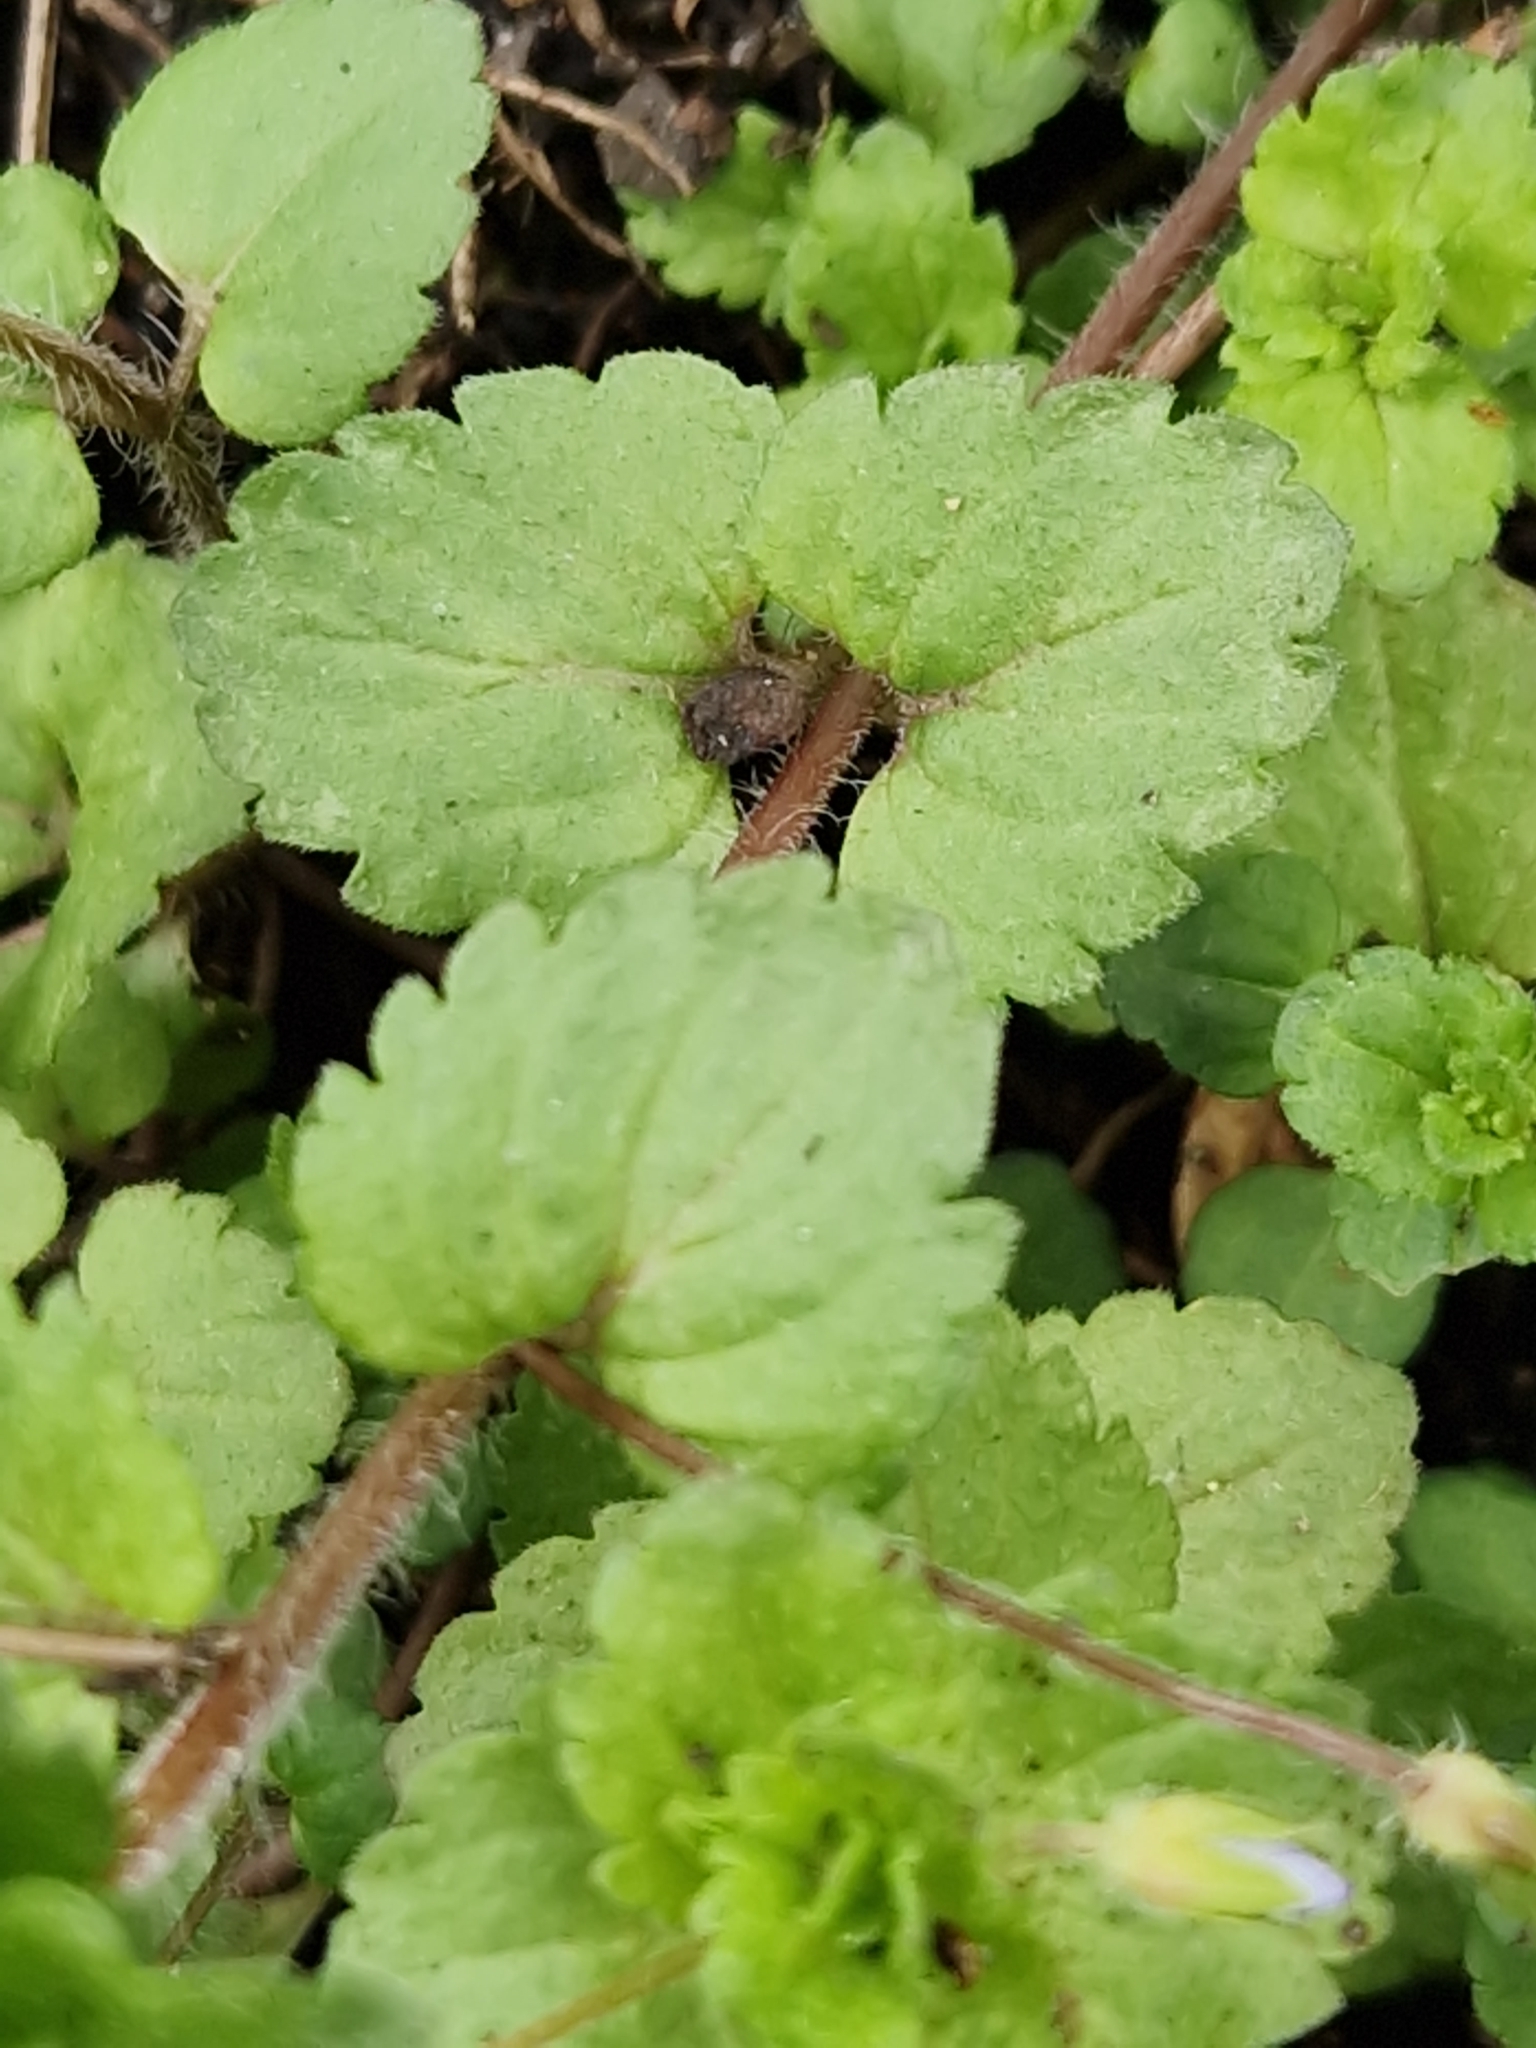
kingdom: Plantae
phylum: Tracheophyta
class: Magnoliopsida
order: Lamiales
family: Plantaginaceae
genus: Veronica
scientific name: Veronica persica
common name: Common field-speedwell
